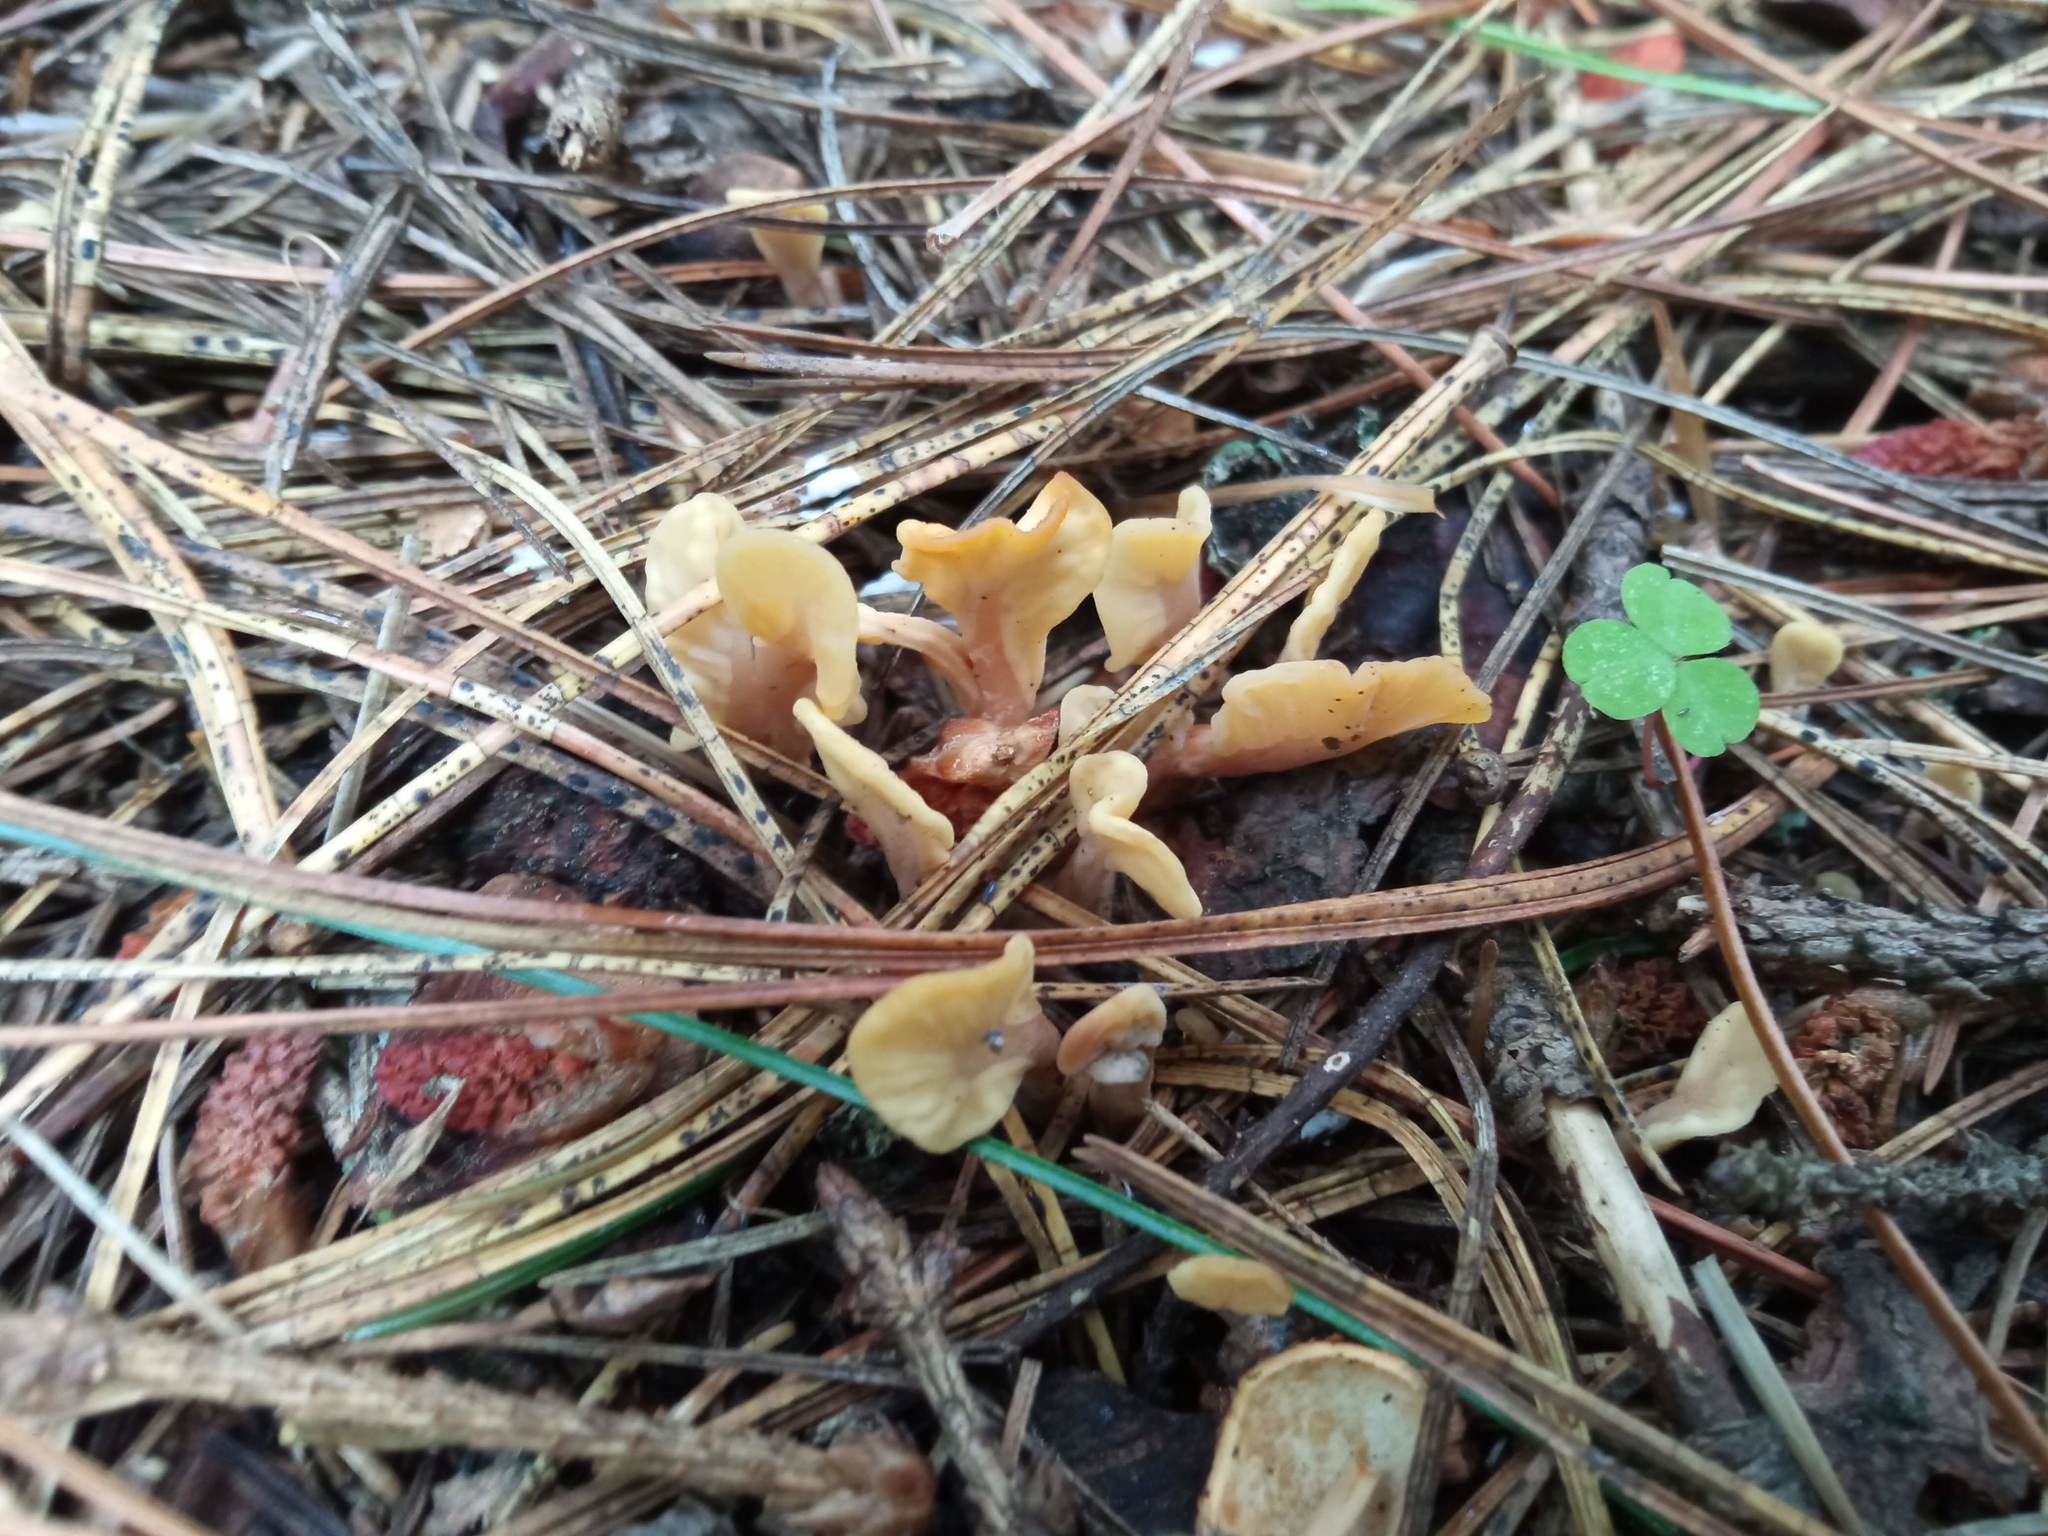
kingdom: Fungi
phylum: Ascomycota
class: Leotiomycetes
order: Rhytismatales
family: Cudoniaceae
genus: Spathularia
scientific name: Spathularia rufa
